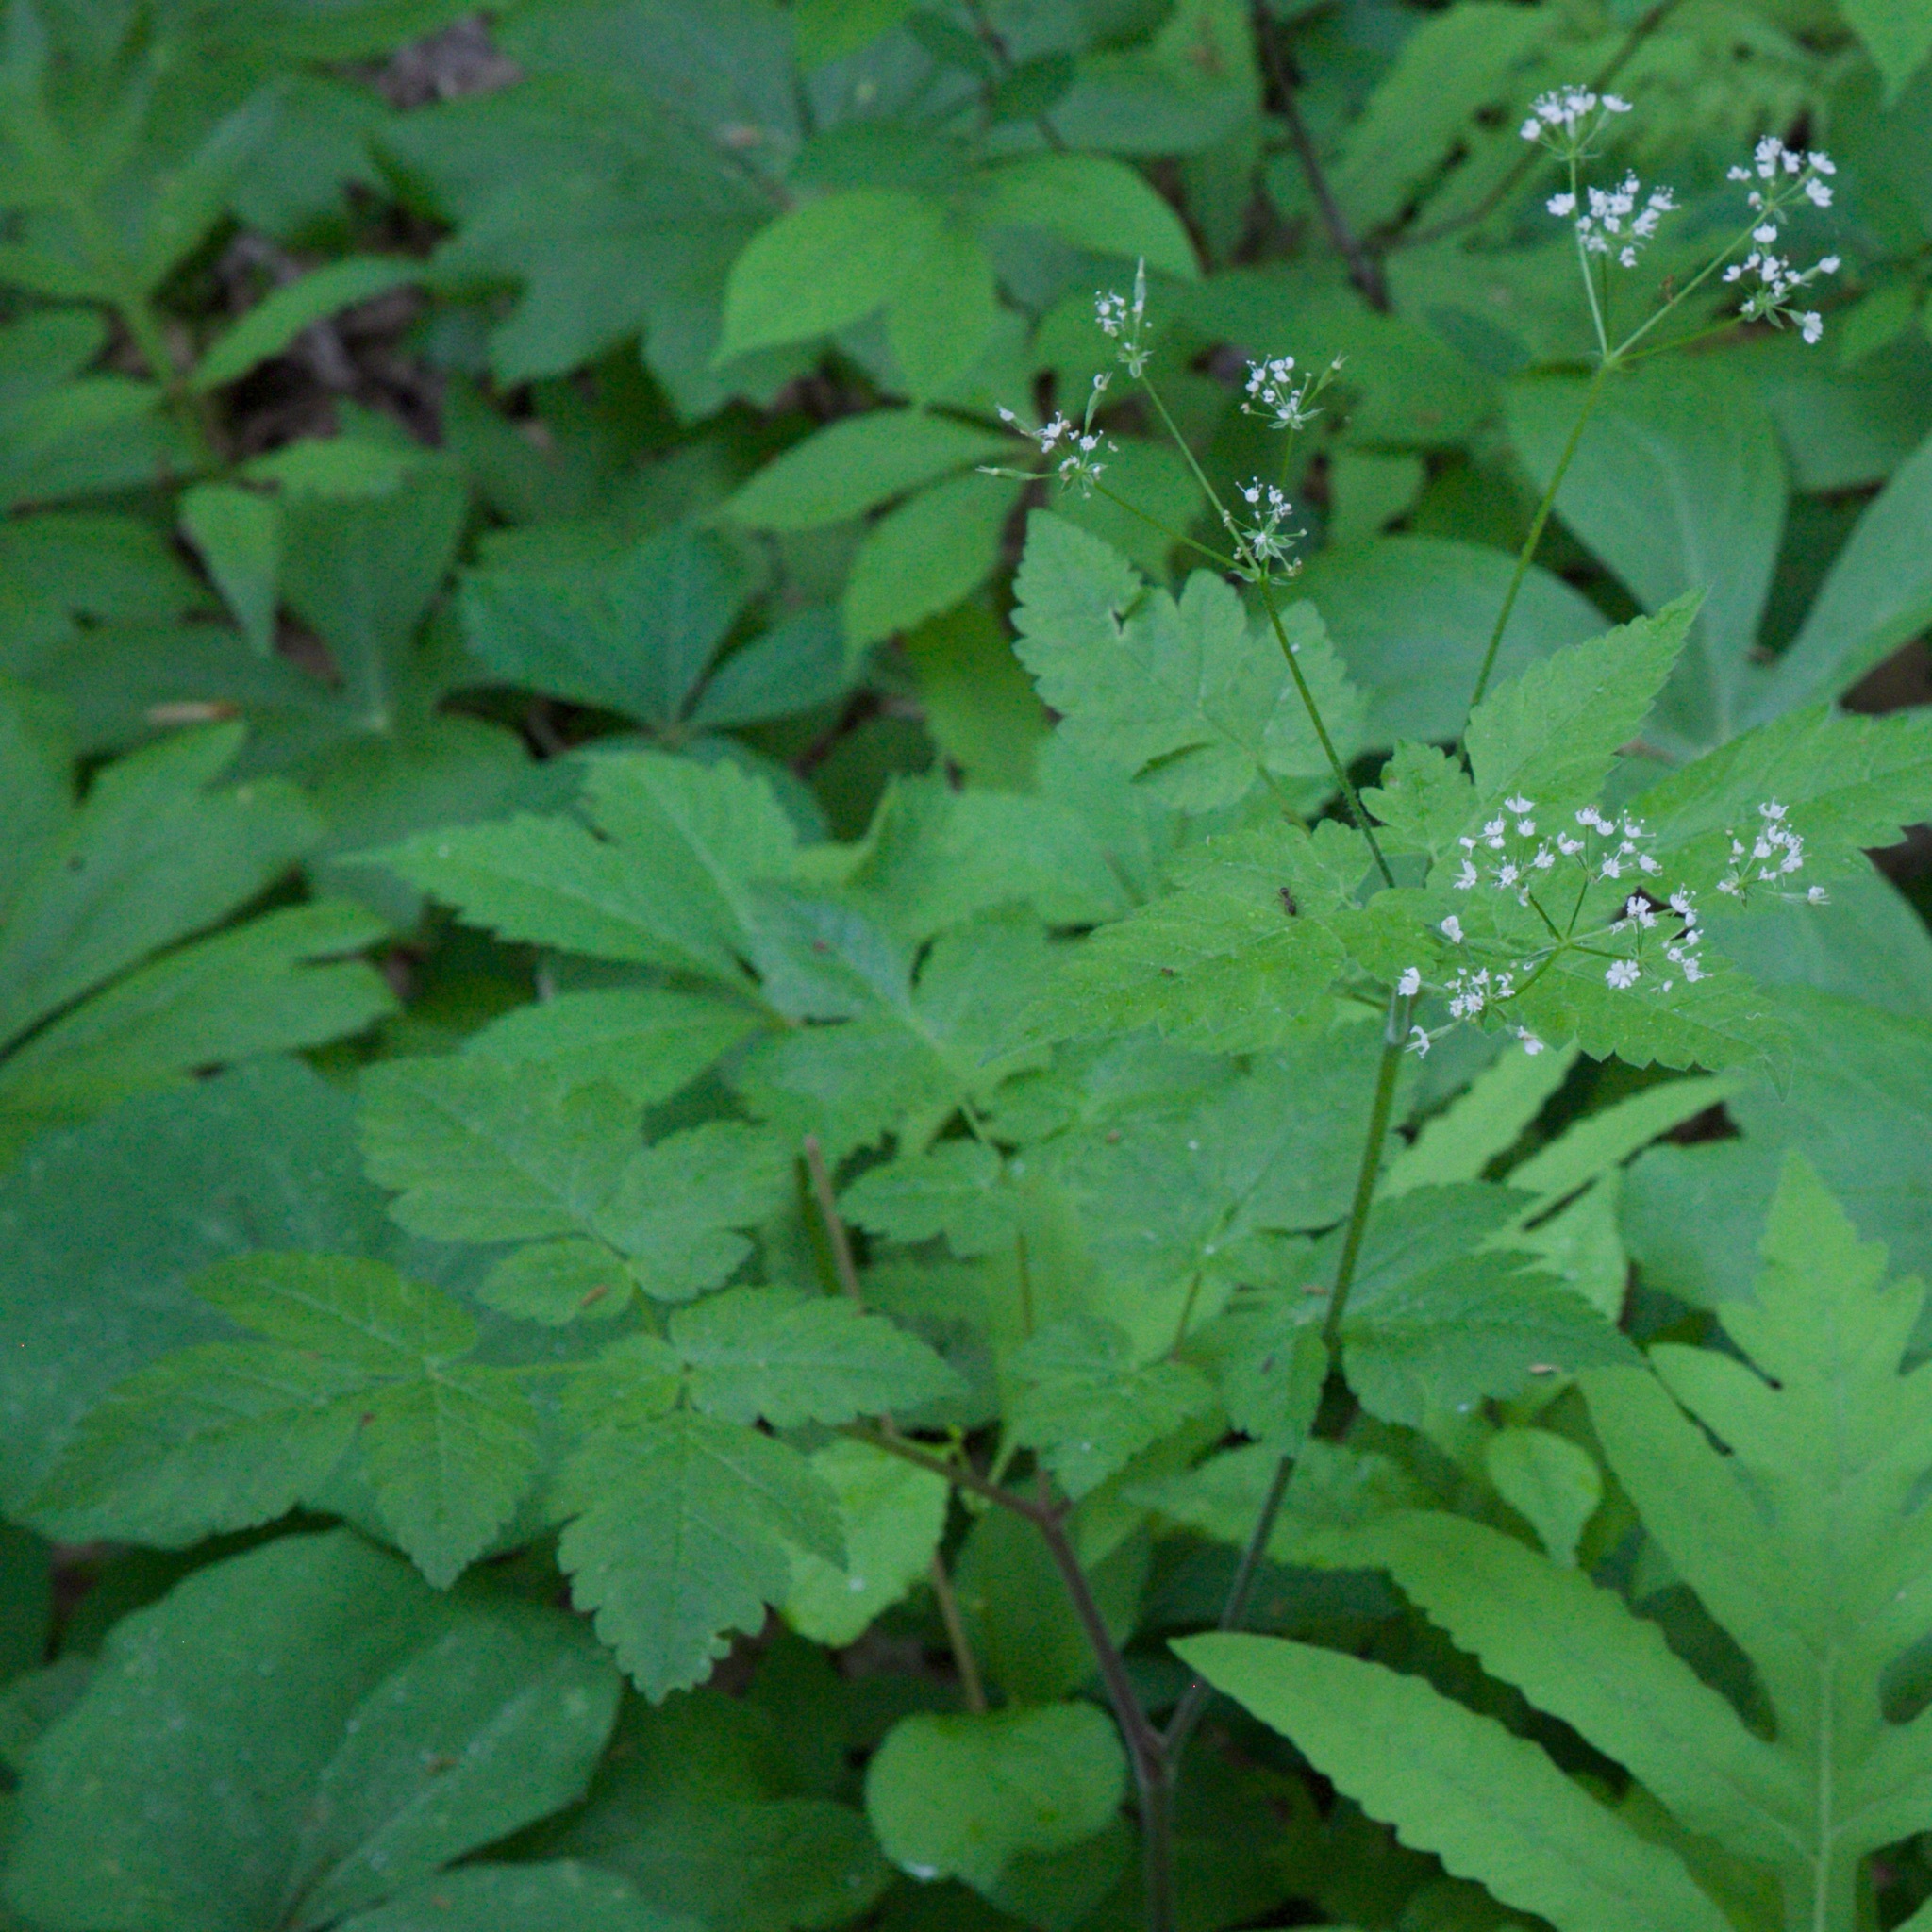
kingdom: Plantae
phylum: Tracheophyta
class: Magnoliopsida
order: Apiales
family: Apiaceae
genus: Osmorhiza
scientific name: Osmorhiza longistylis
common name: Smooth sweet cicely
